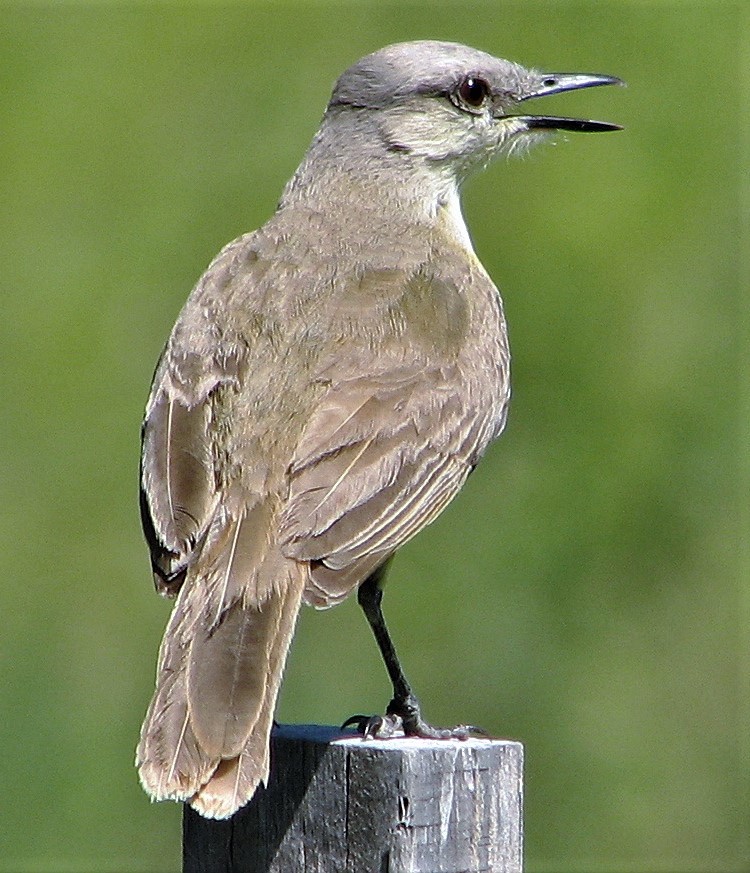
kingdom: Animalia
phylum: Chordata
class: Aves
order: Passeriformes
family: Tyrannidae
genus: Machetornis
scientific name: Machetornis rixosa
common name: Cattle tyrant
